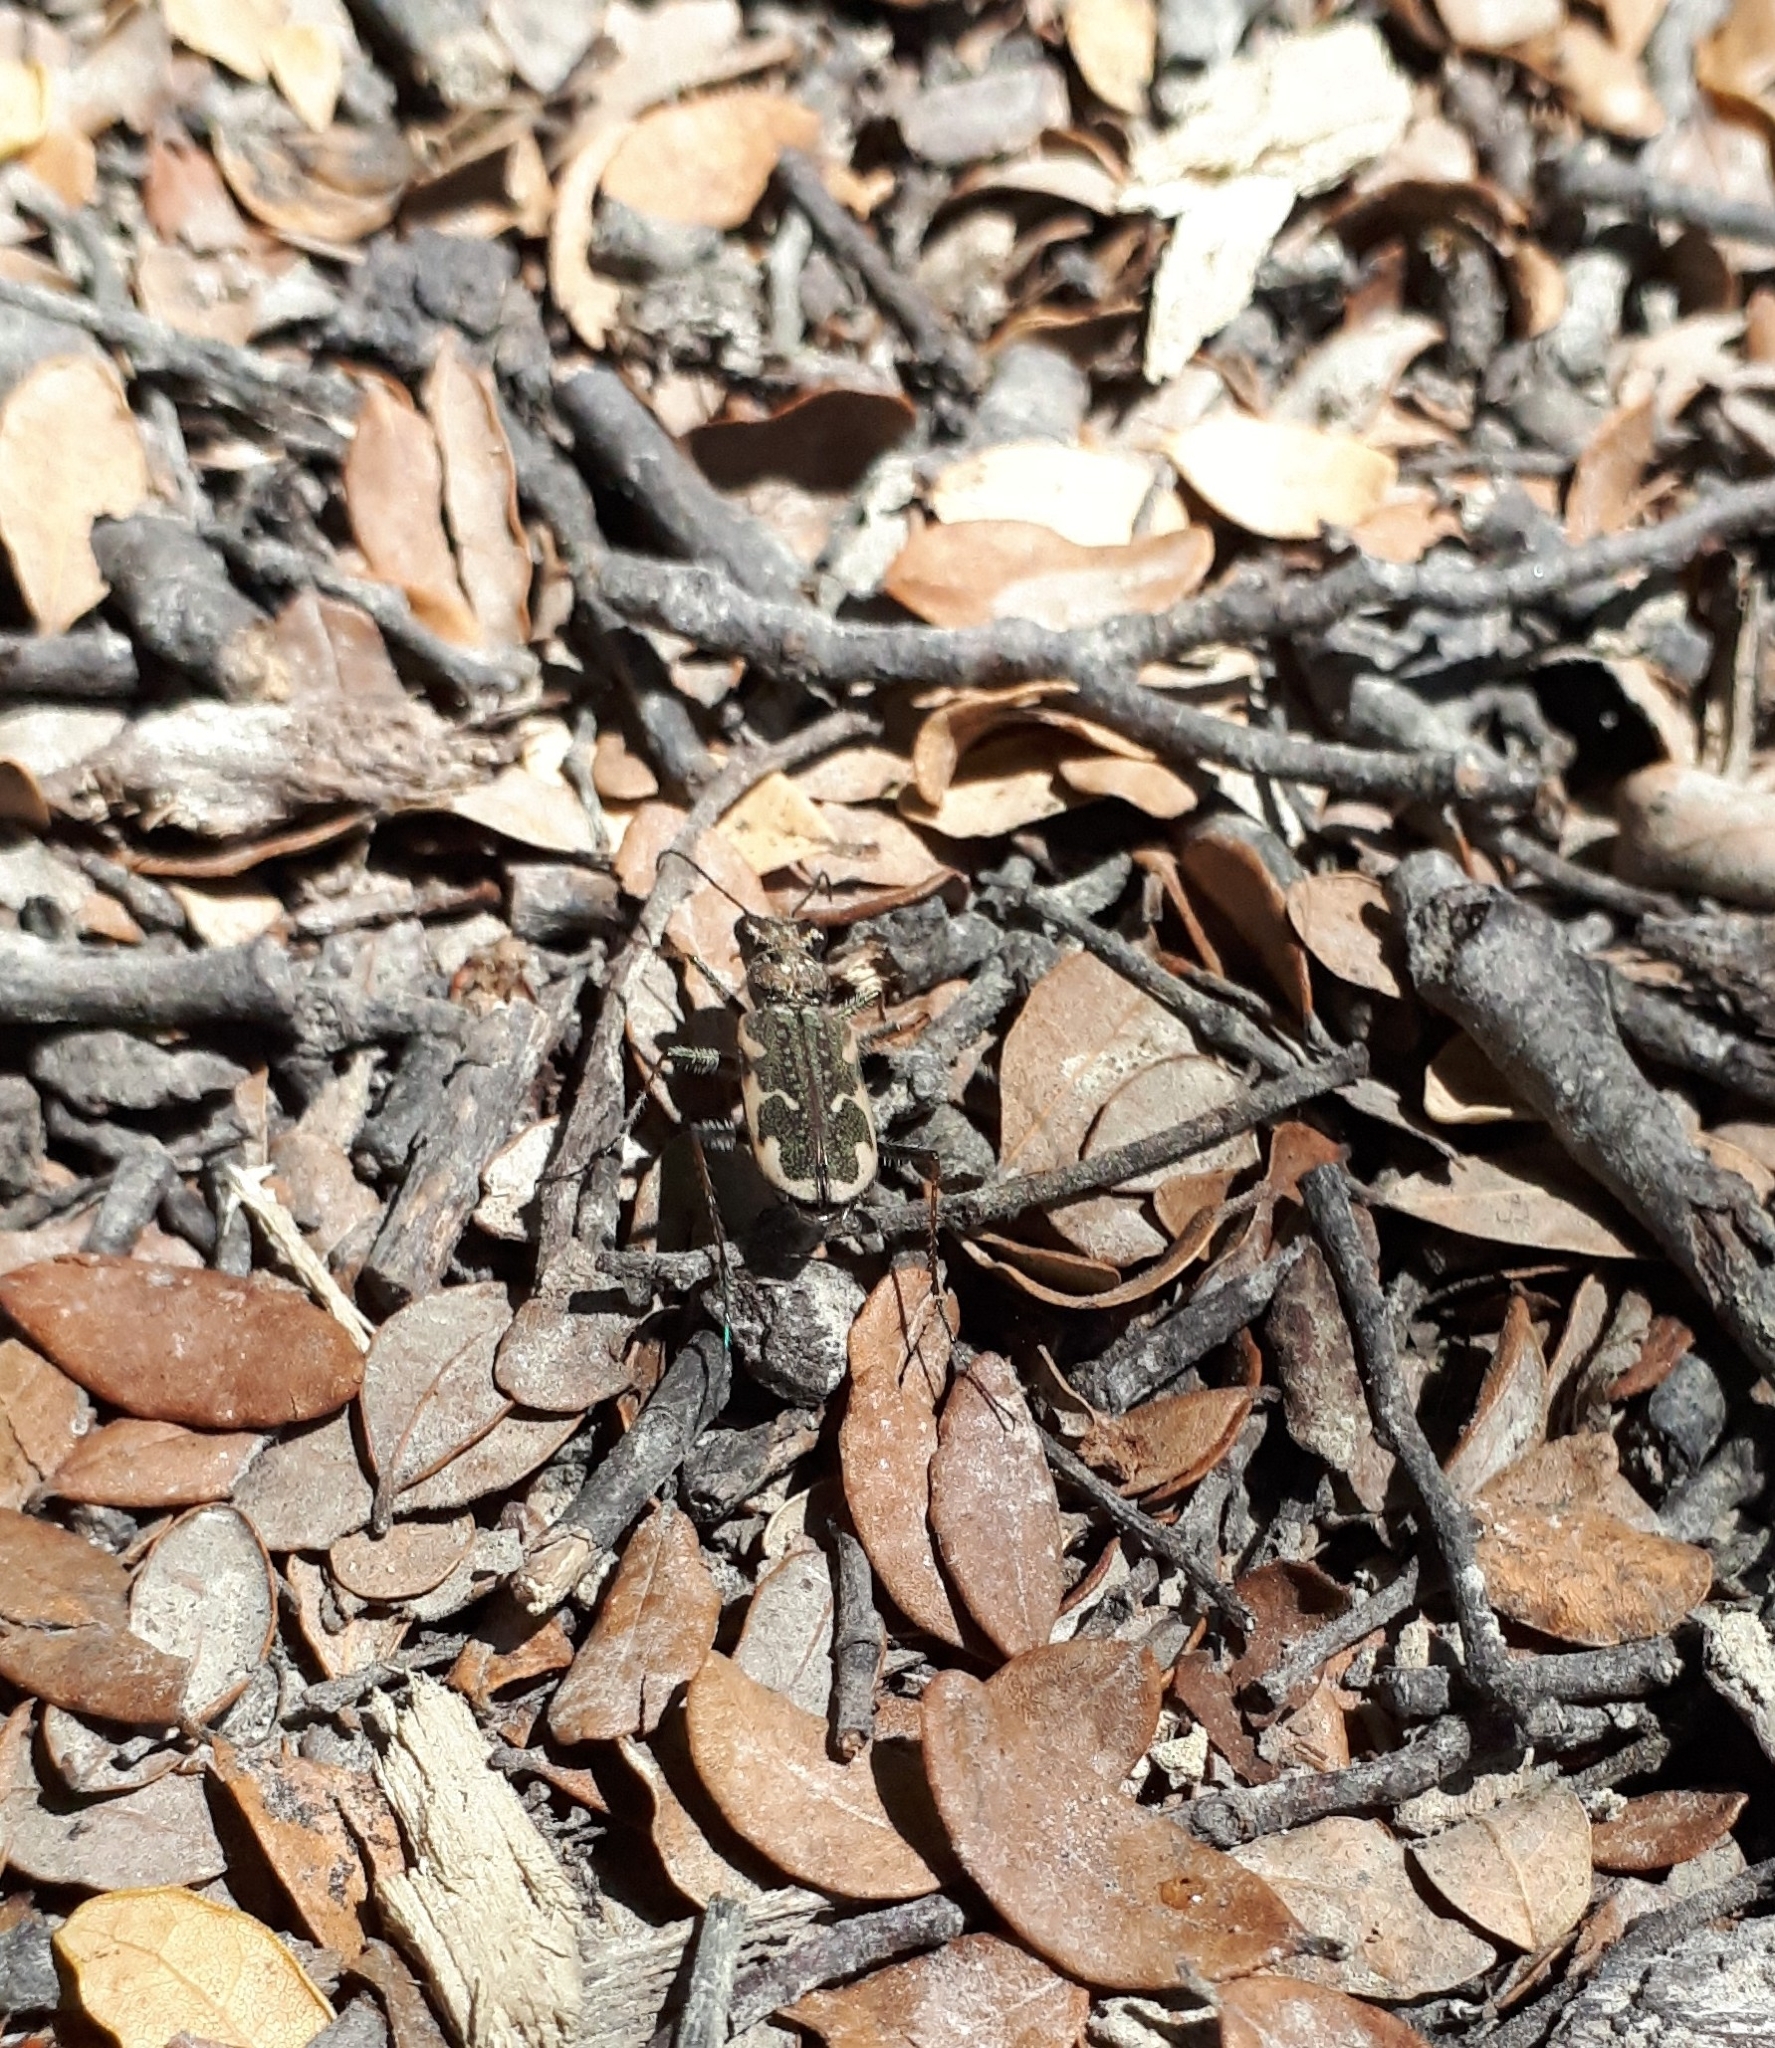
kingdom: Animalia
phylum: Arthropoda
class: Insecta
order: Coleoptera
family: Carabidae
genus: Neocicindela
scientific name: Neocicindela tuberculata
